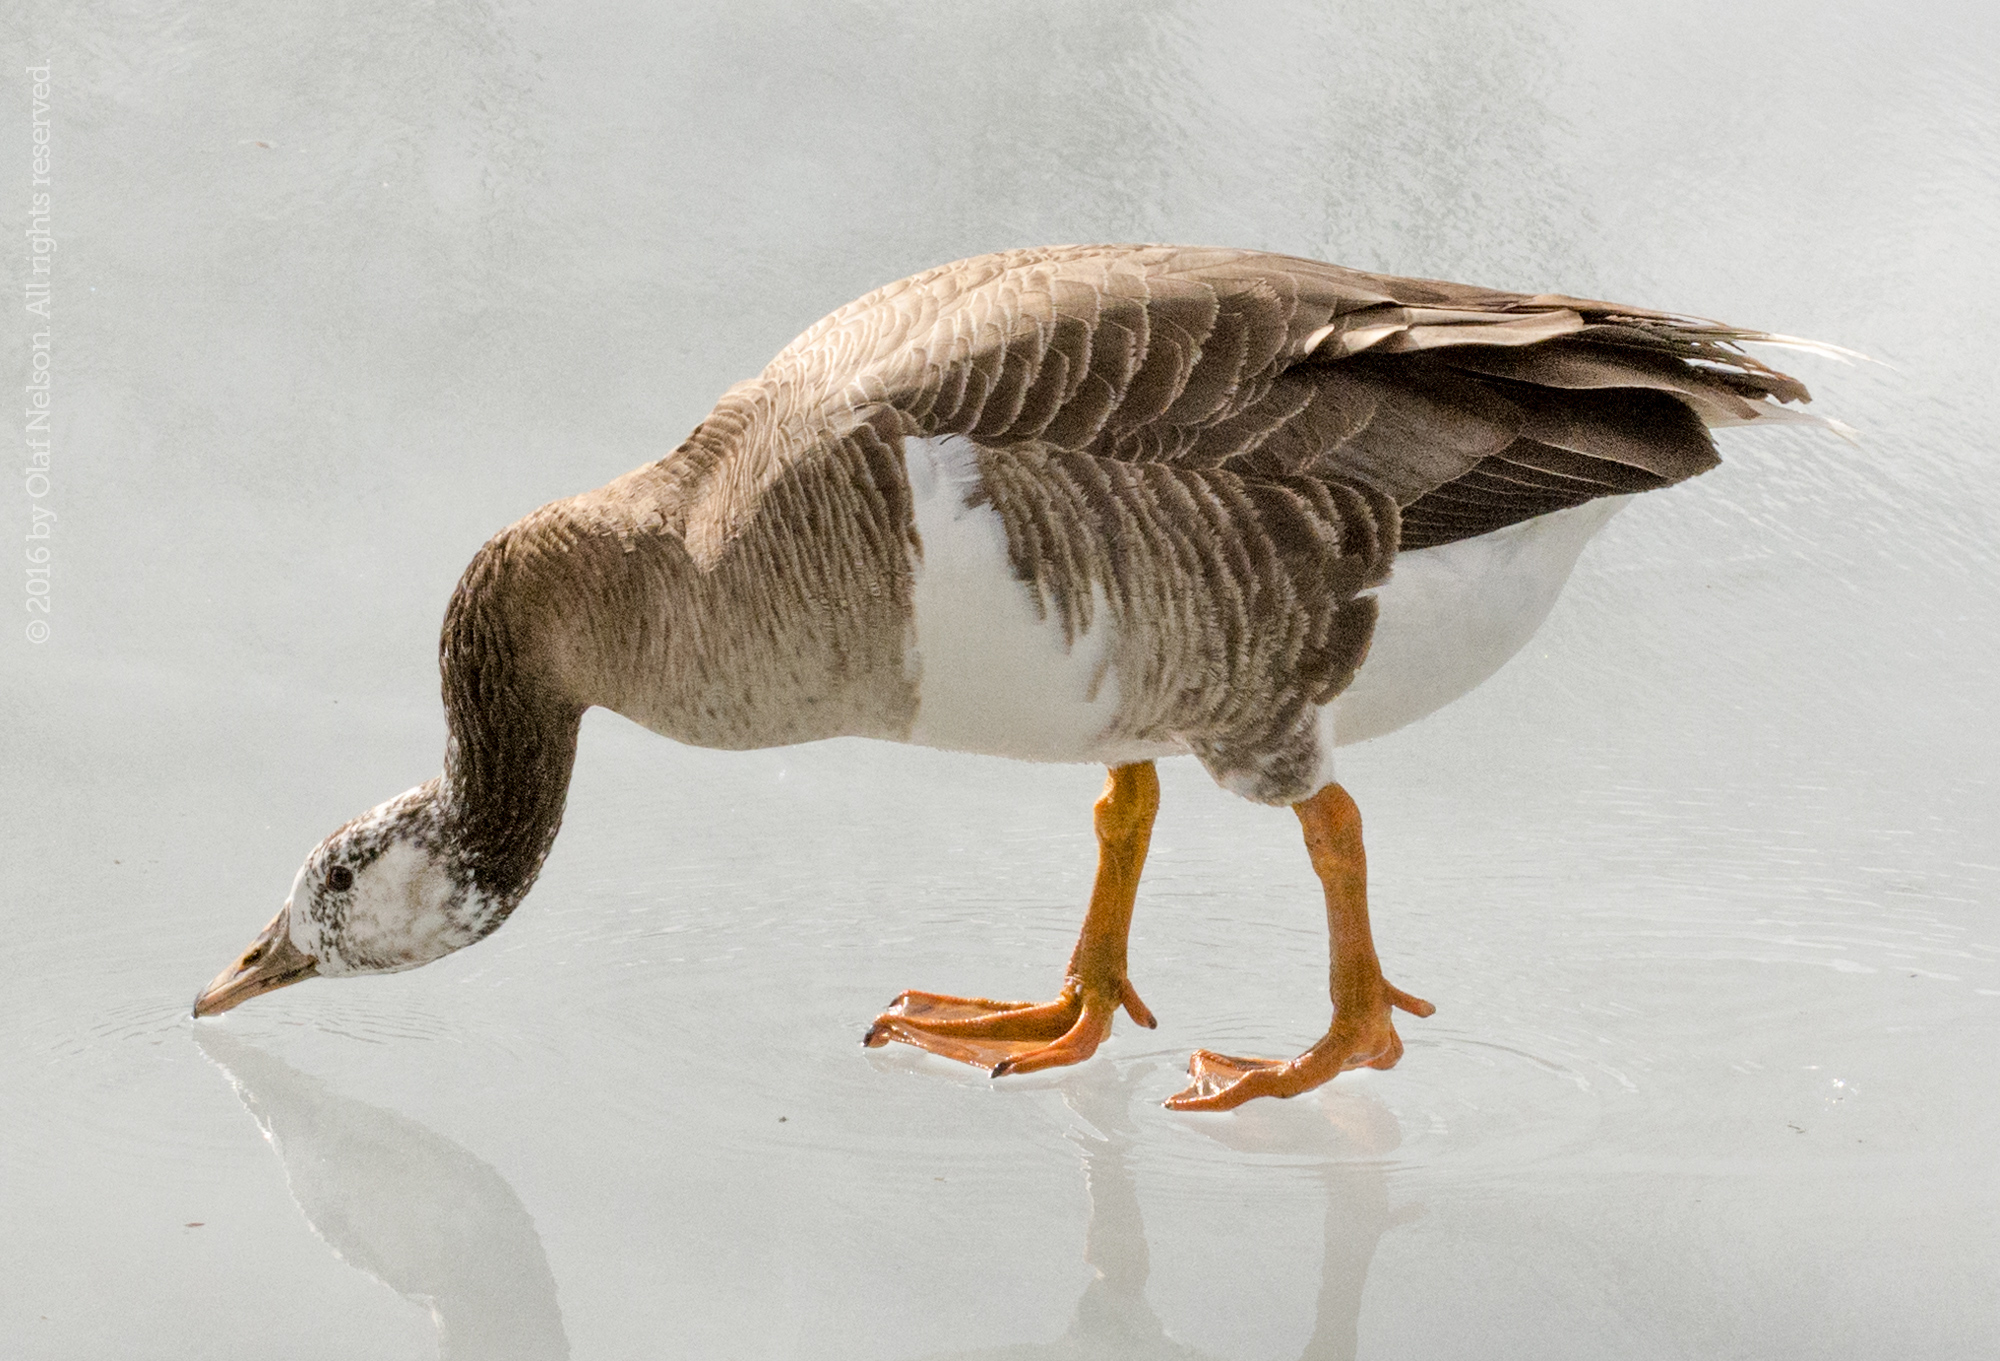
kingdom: Animalia
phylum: Chordata
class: Aves
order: Anseriformes
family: Anatidae
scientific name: Anatidae
